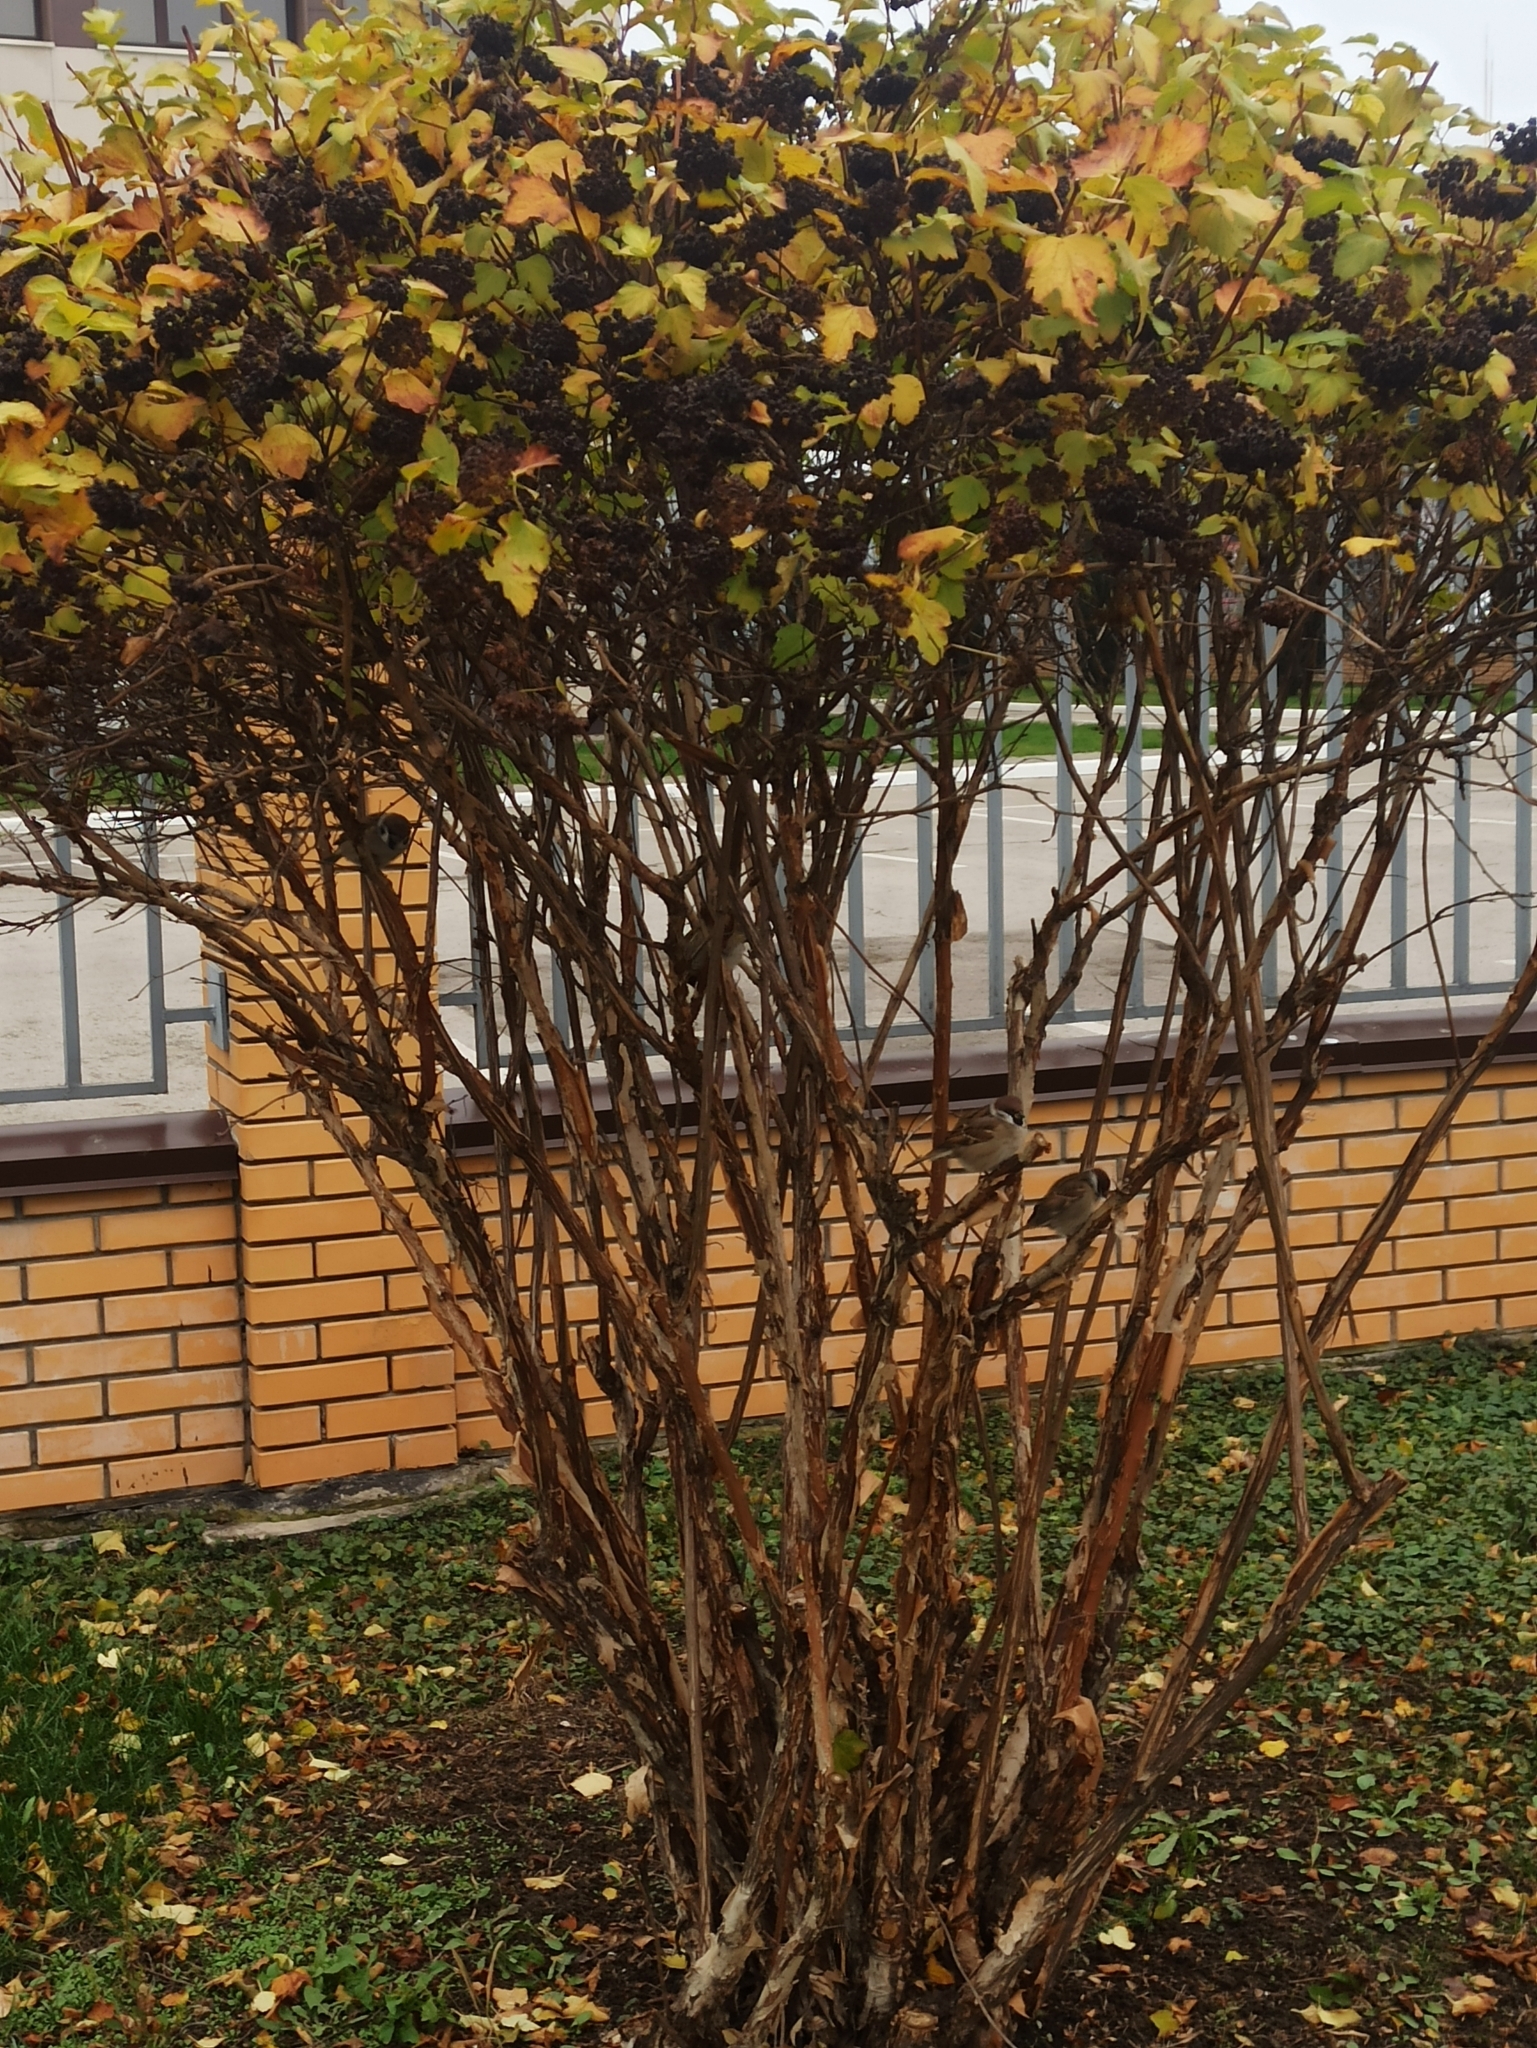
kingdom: Animalia
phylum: Chordata
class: Aves
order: Passeriformes
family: Passeridae
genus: Passer
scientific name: Passer montanus
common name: Eurasian tree sparrow
